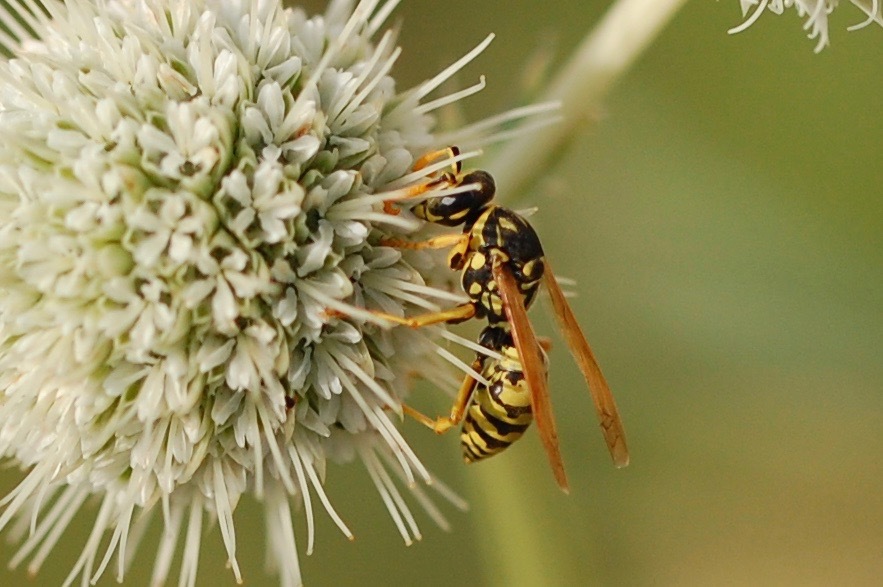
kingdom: Animalia
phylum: Arthropoda
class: Insecta
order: Hymenoptera
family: Eumenidae
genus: Polistes
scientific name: Polistes dominula
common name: Paper wasp
